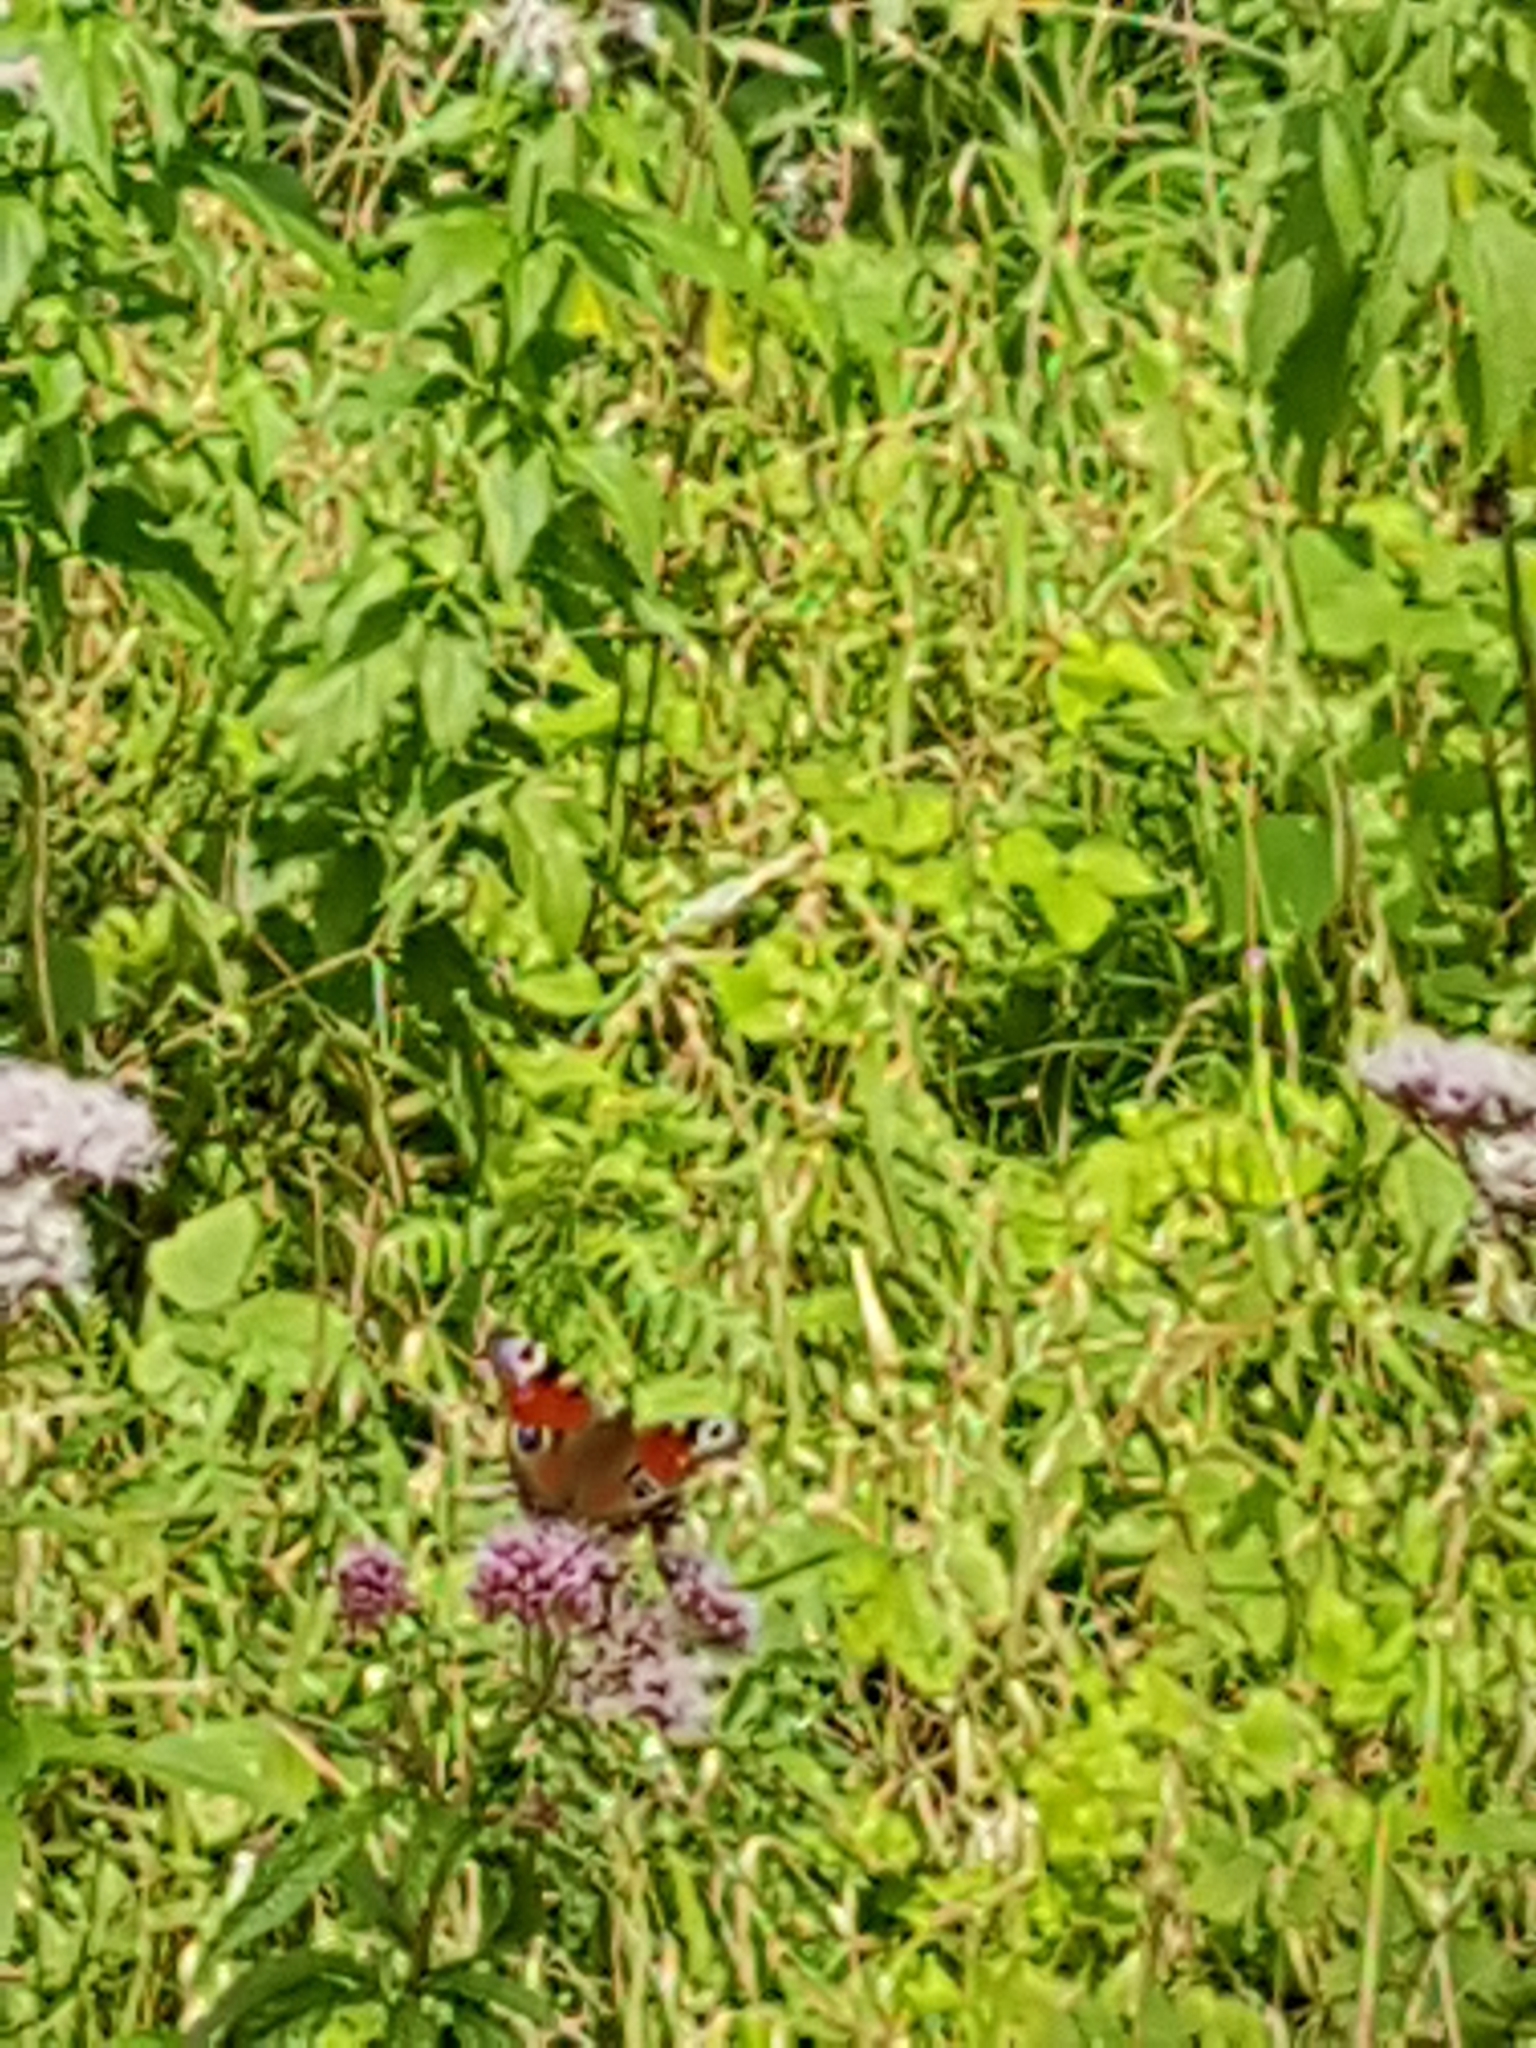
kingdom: Animalia
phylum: Arthropoda
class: Insecta
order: Lepidoptera
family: Nymphalidae
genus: Aglais
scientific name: Aglais io
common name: Peacock
